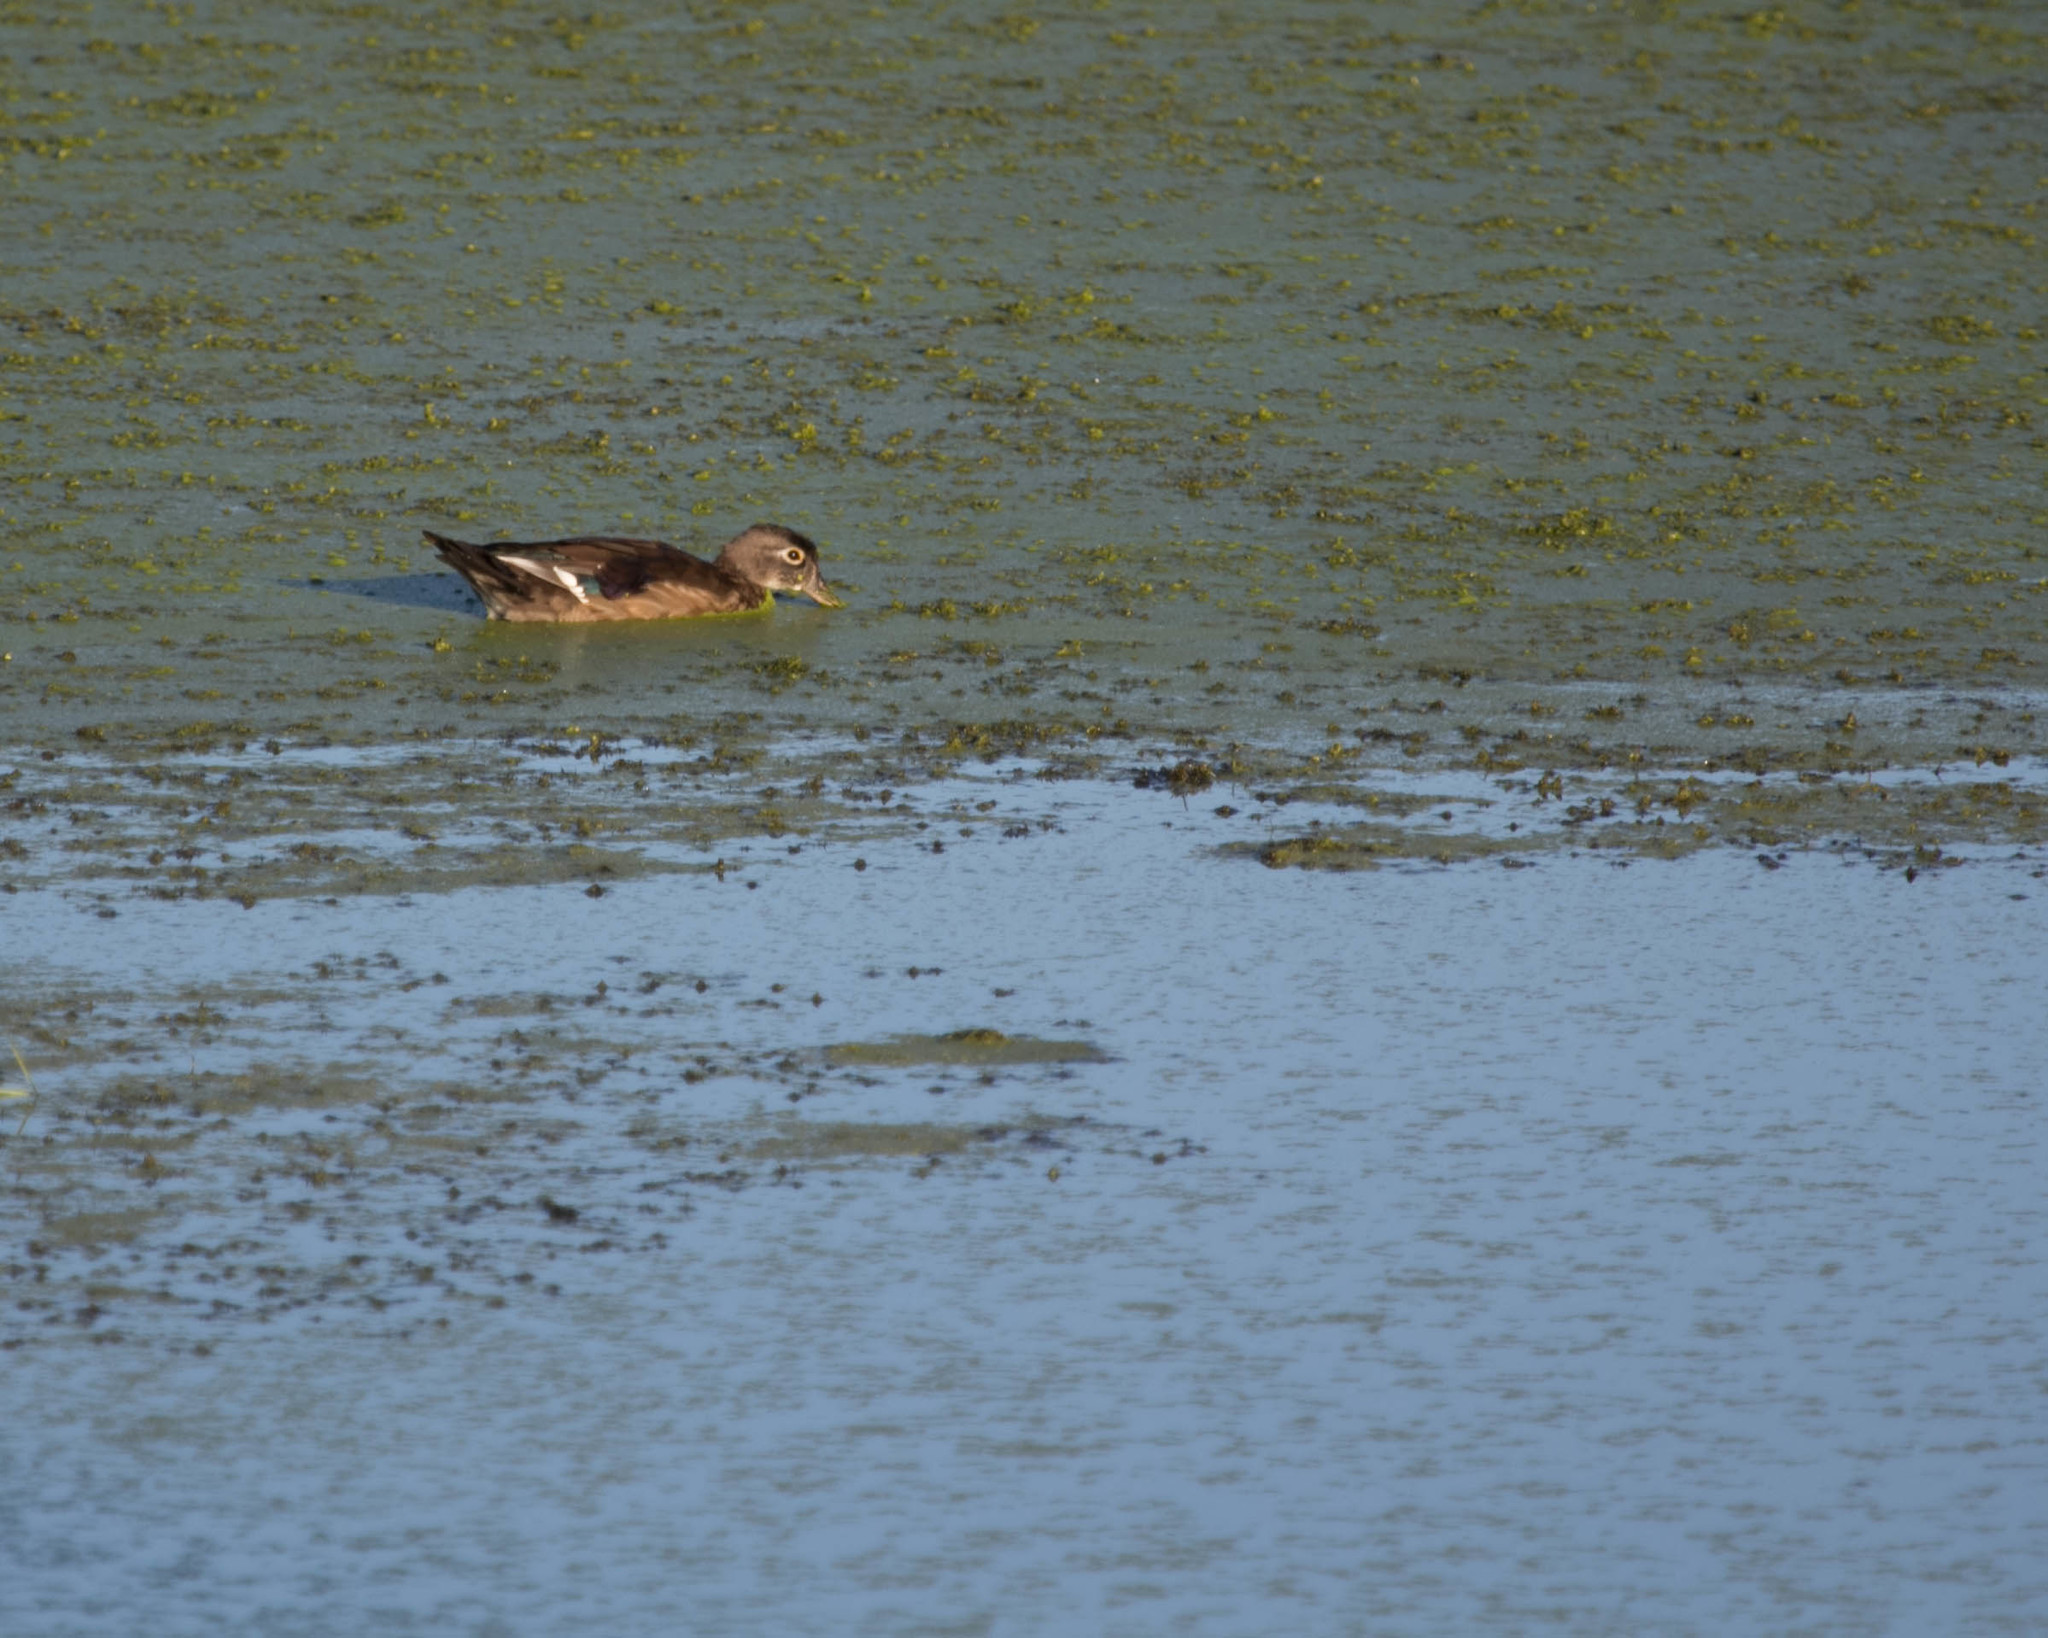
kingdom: Animalia
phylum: Chordata
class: Aves
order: Anseriformes
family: Anatidae
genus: Aix
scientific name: Aix sponsa
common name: Wood duck
